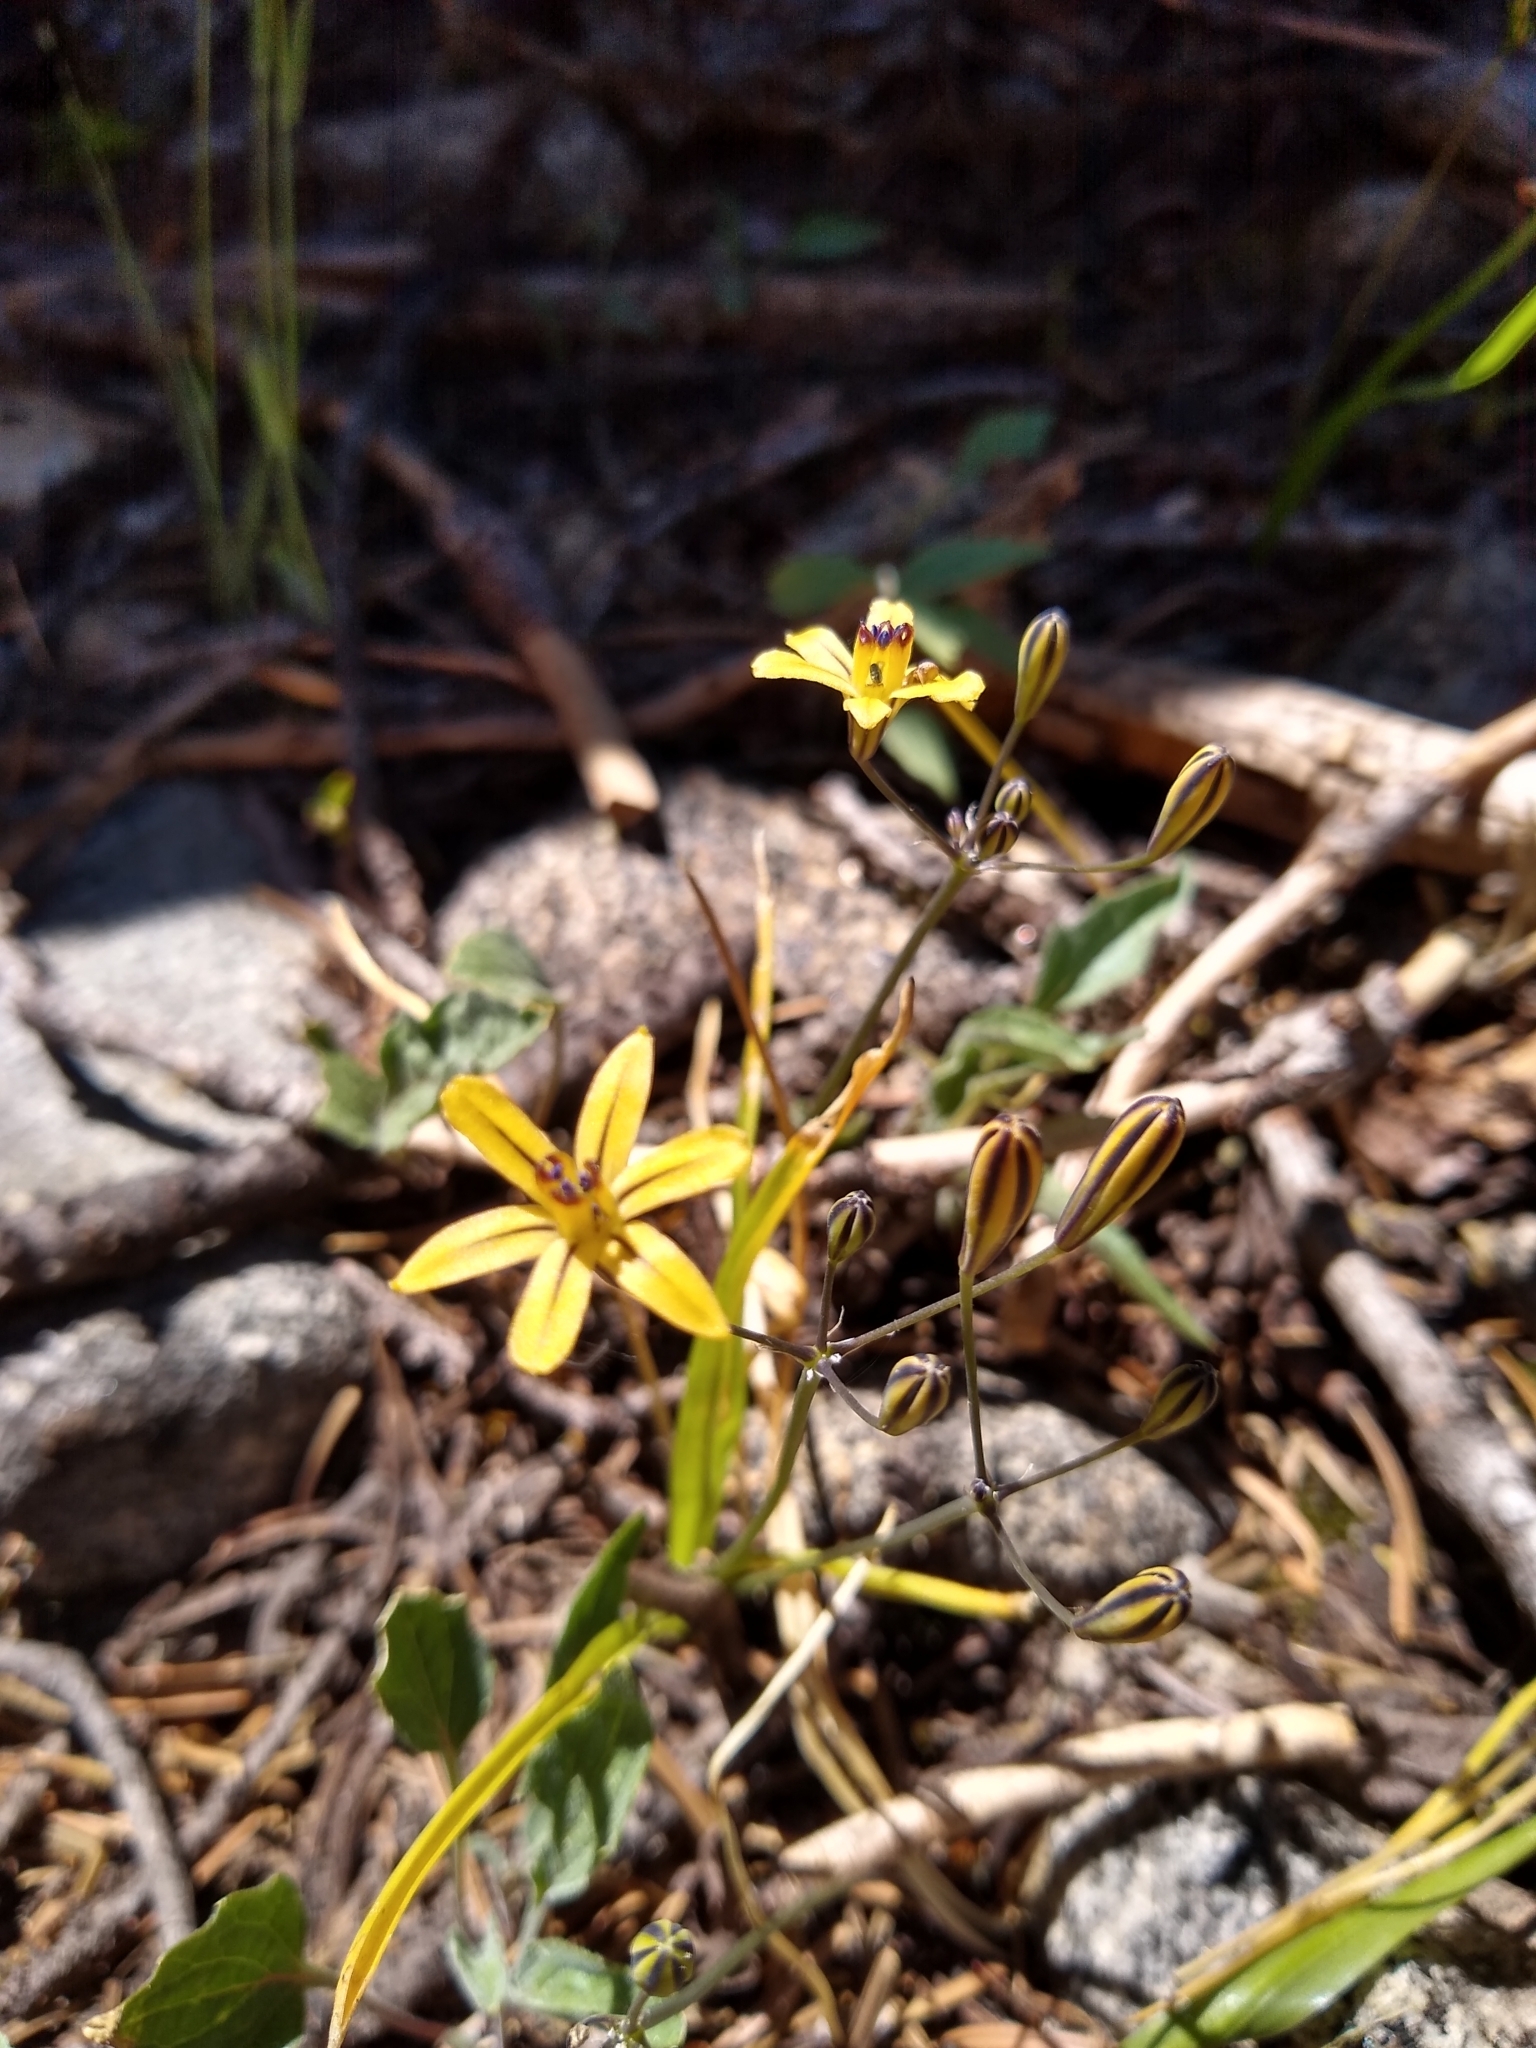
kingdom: Plantae
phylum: Tracheophyta
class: Liliopsida
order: Asparagales
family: Asparagaceae
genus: Triteleia
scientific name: Triteleia ixioides
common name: Yellow-brodiaea
